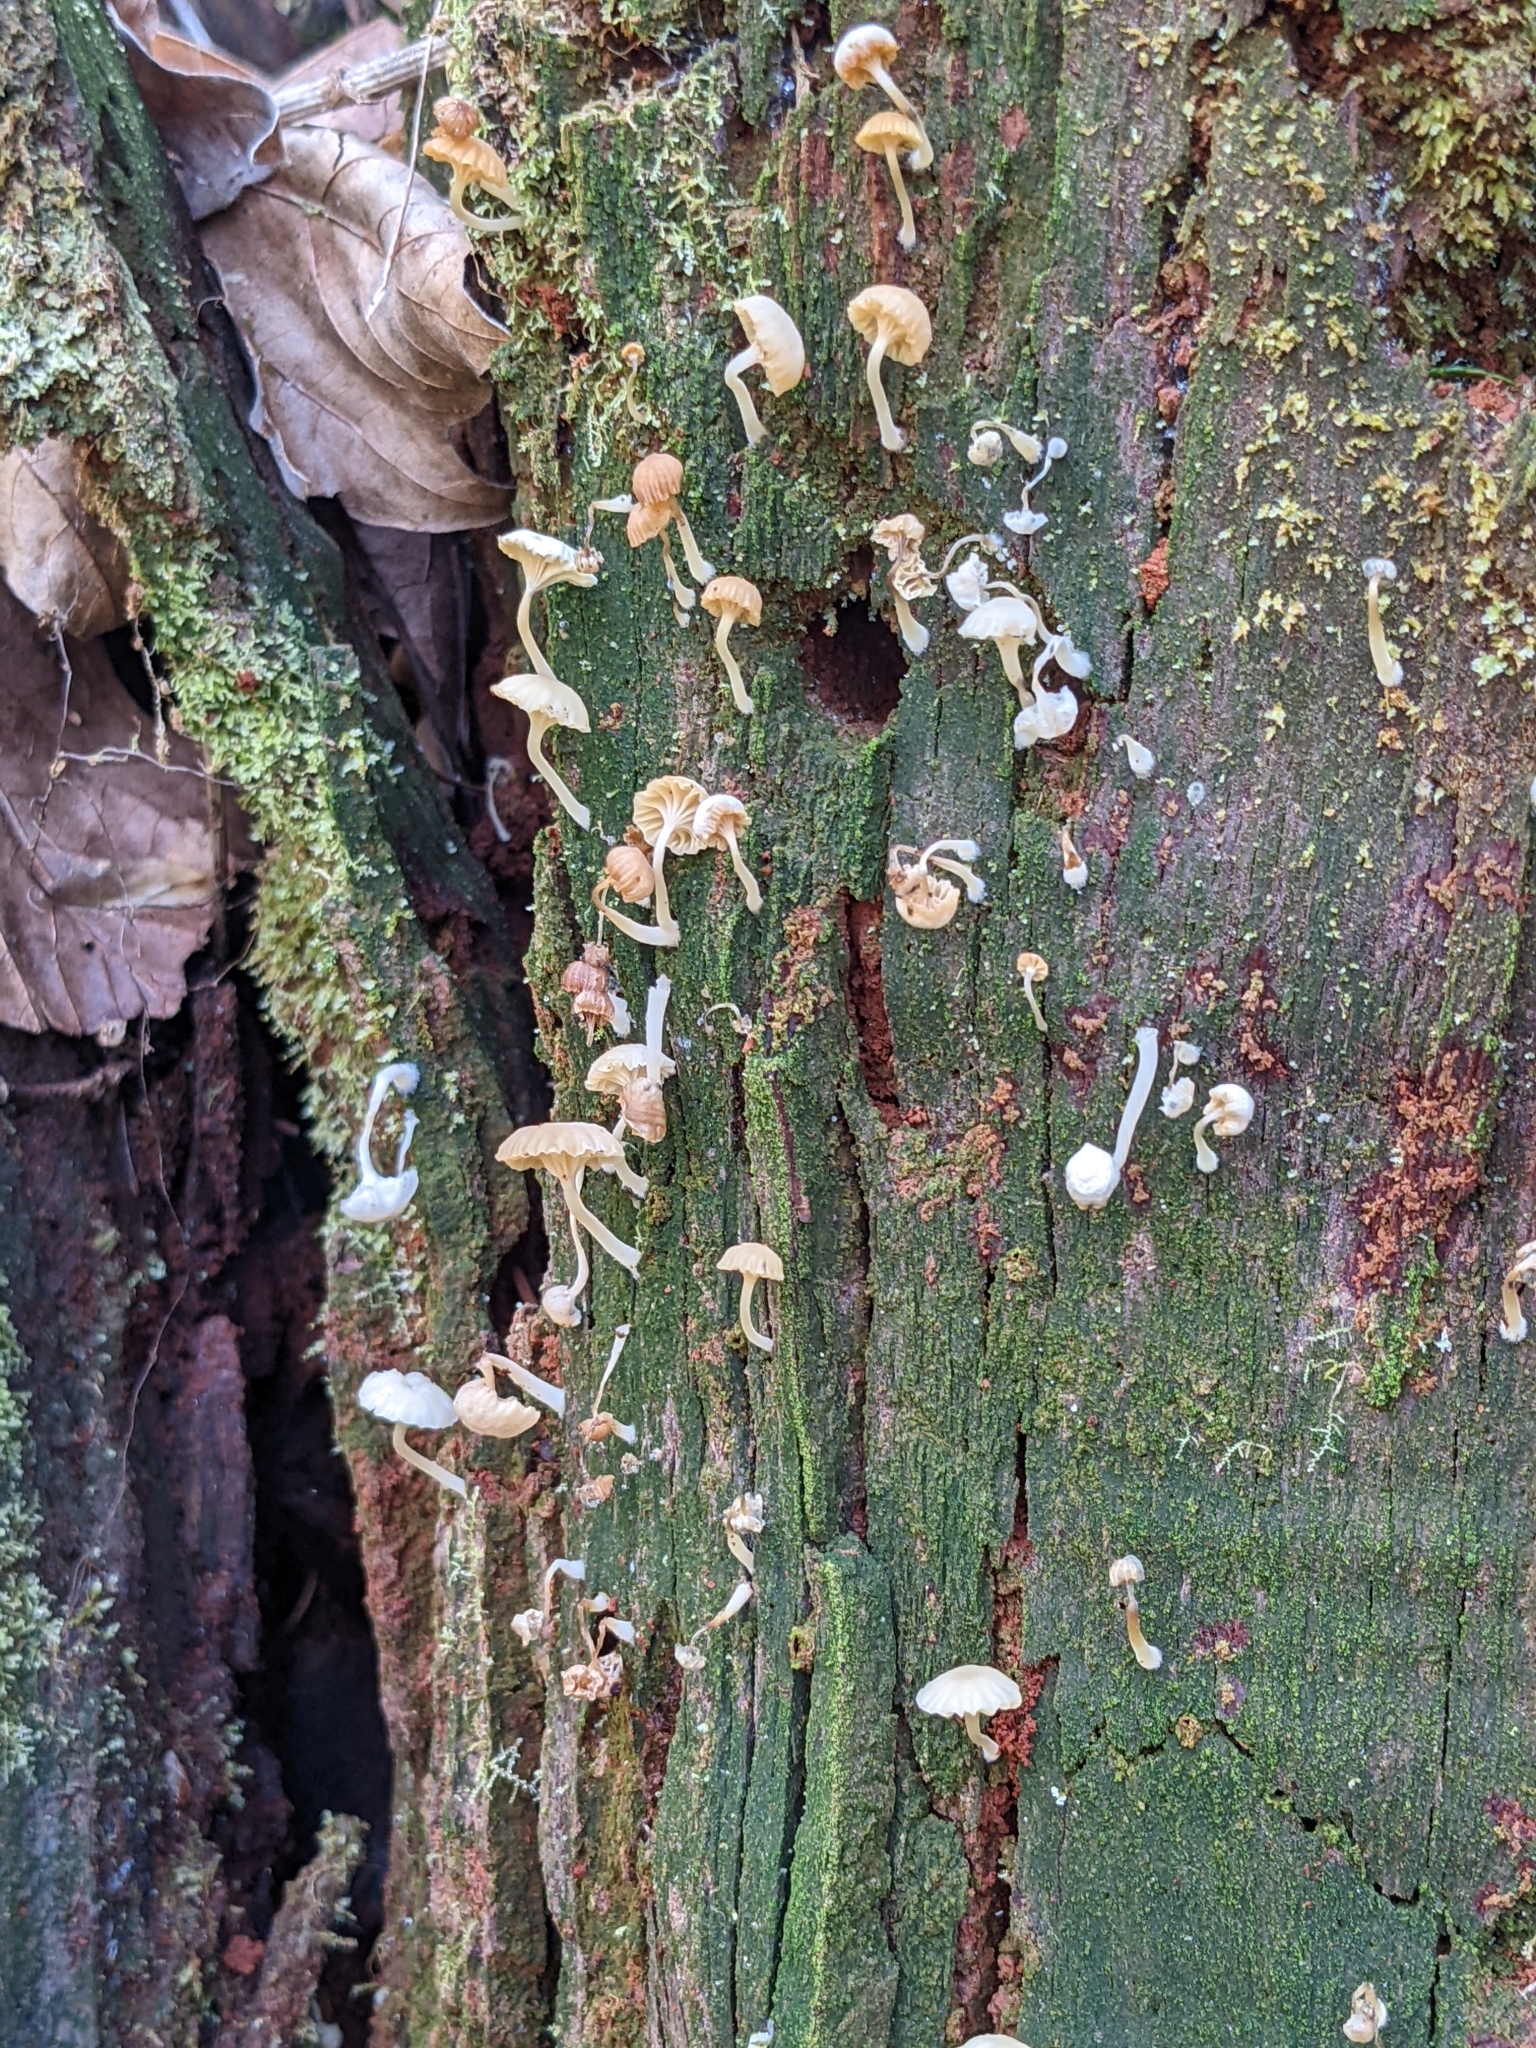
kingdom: Fungi
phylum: Basidiomycota
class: Agaricomycetes
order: Agaricales
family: Hygrophoraceae
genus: Lichenomphalia
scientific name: Lichenomphalia
